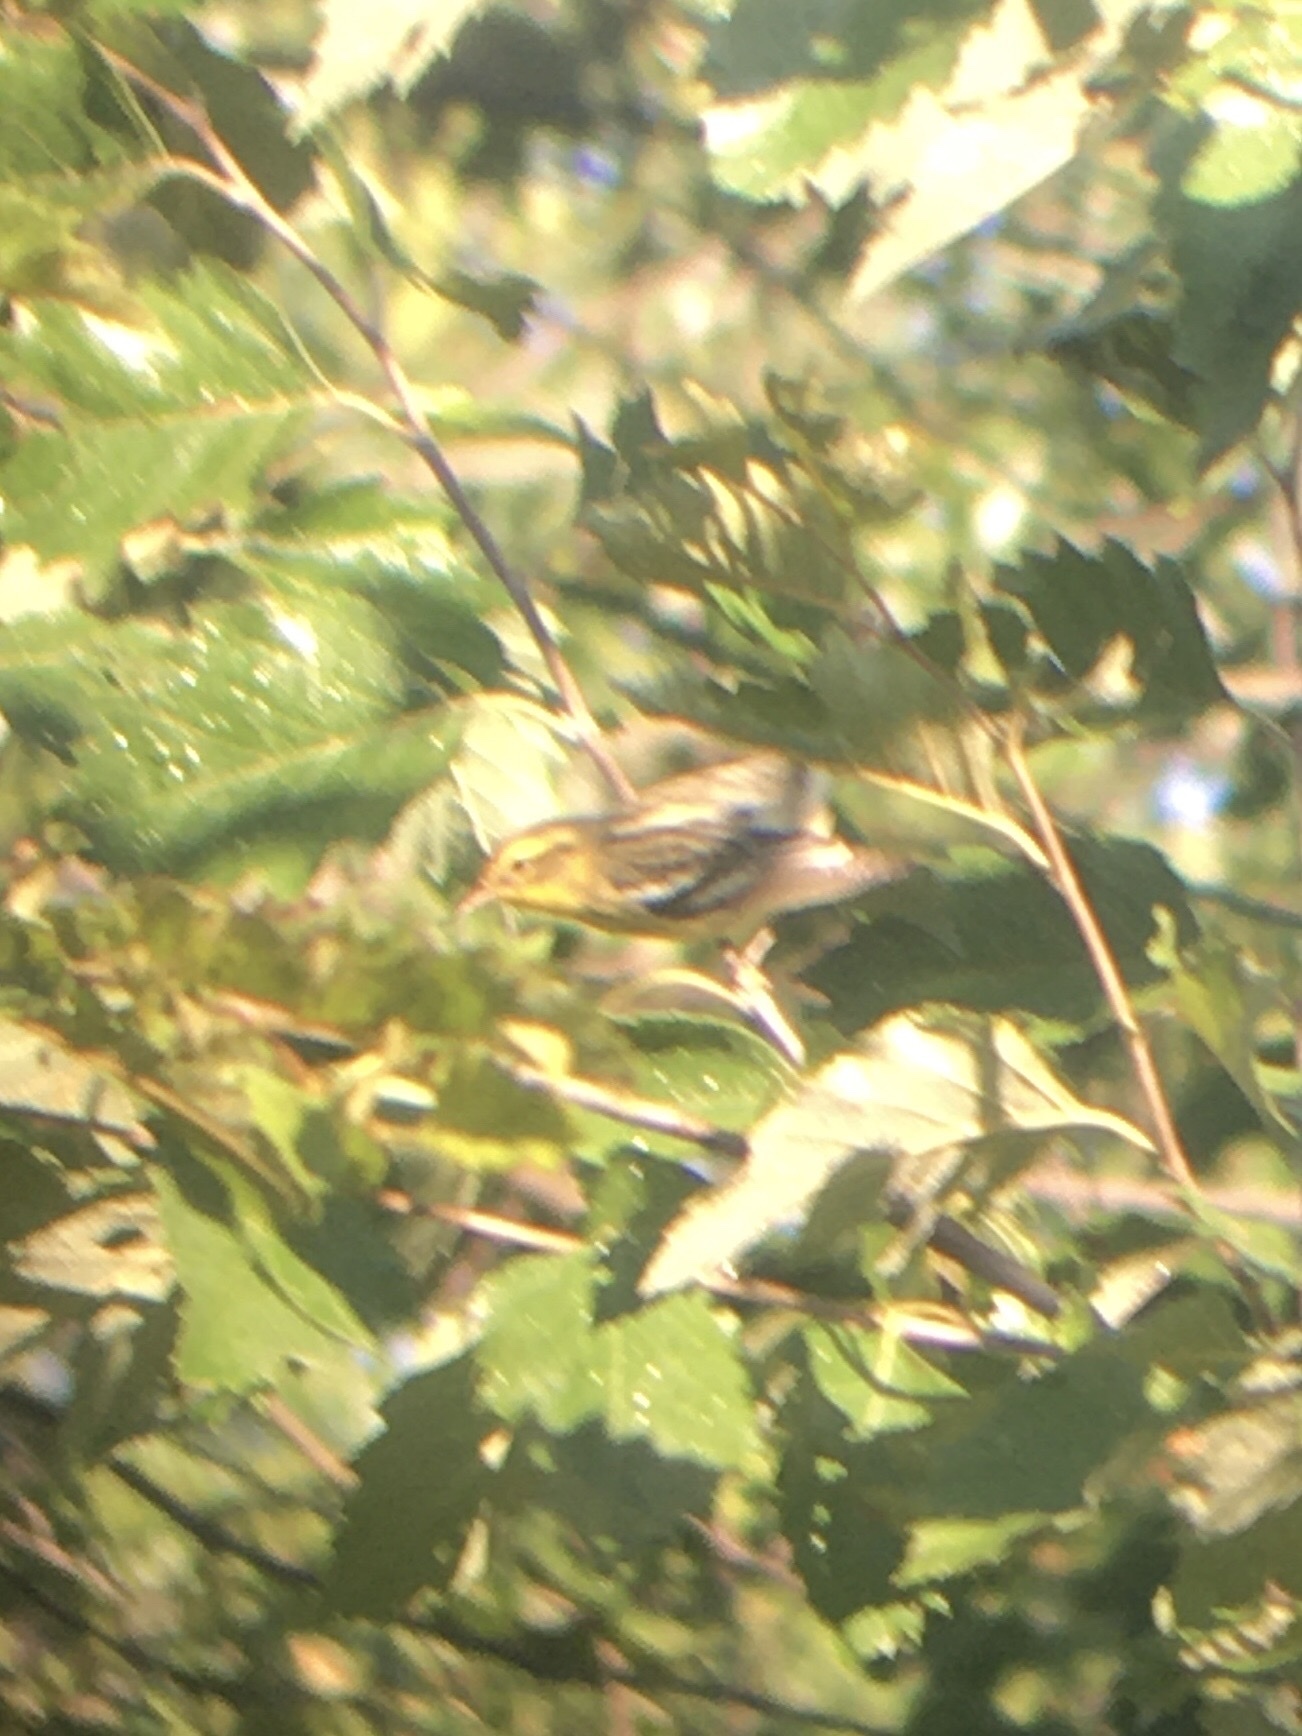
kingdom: Animalia
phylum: Chordata
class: Aves
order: Passeriformes
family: Parulidae
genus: Setophaga
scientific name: Setophaga fusca
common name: Blackburnian warbler
